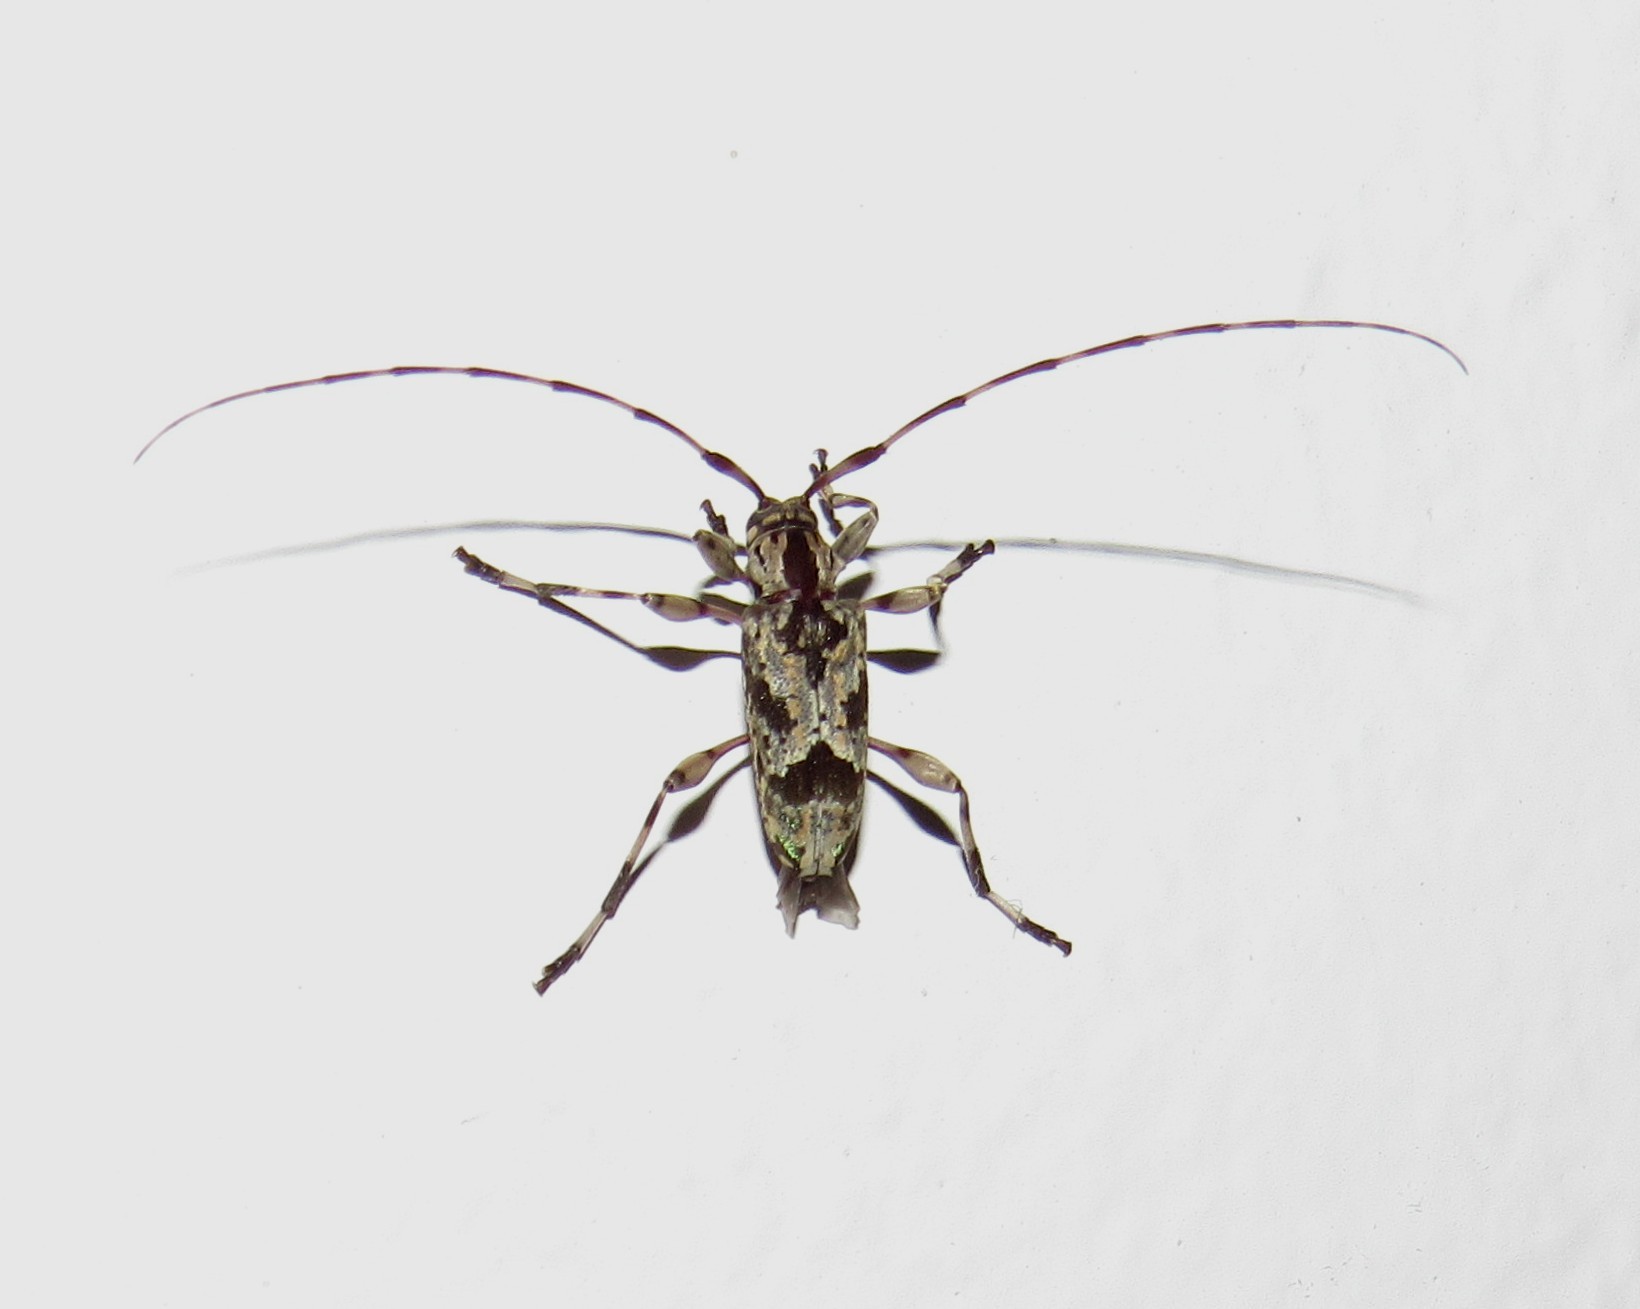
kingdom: Animalia
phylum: Arthropoda
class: Insecta
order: Coleoptera
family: Cerambycidae
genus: Eutrypanus
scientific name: Eutrypanus dorsalis
